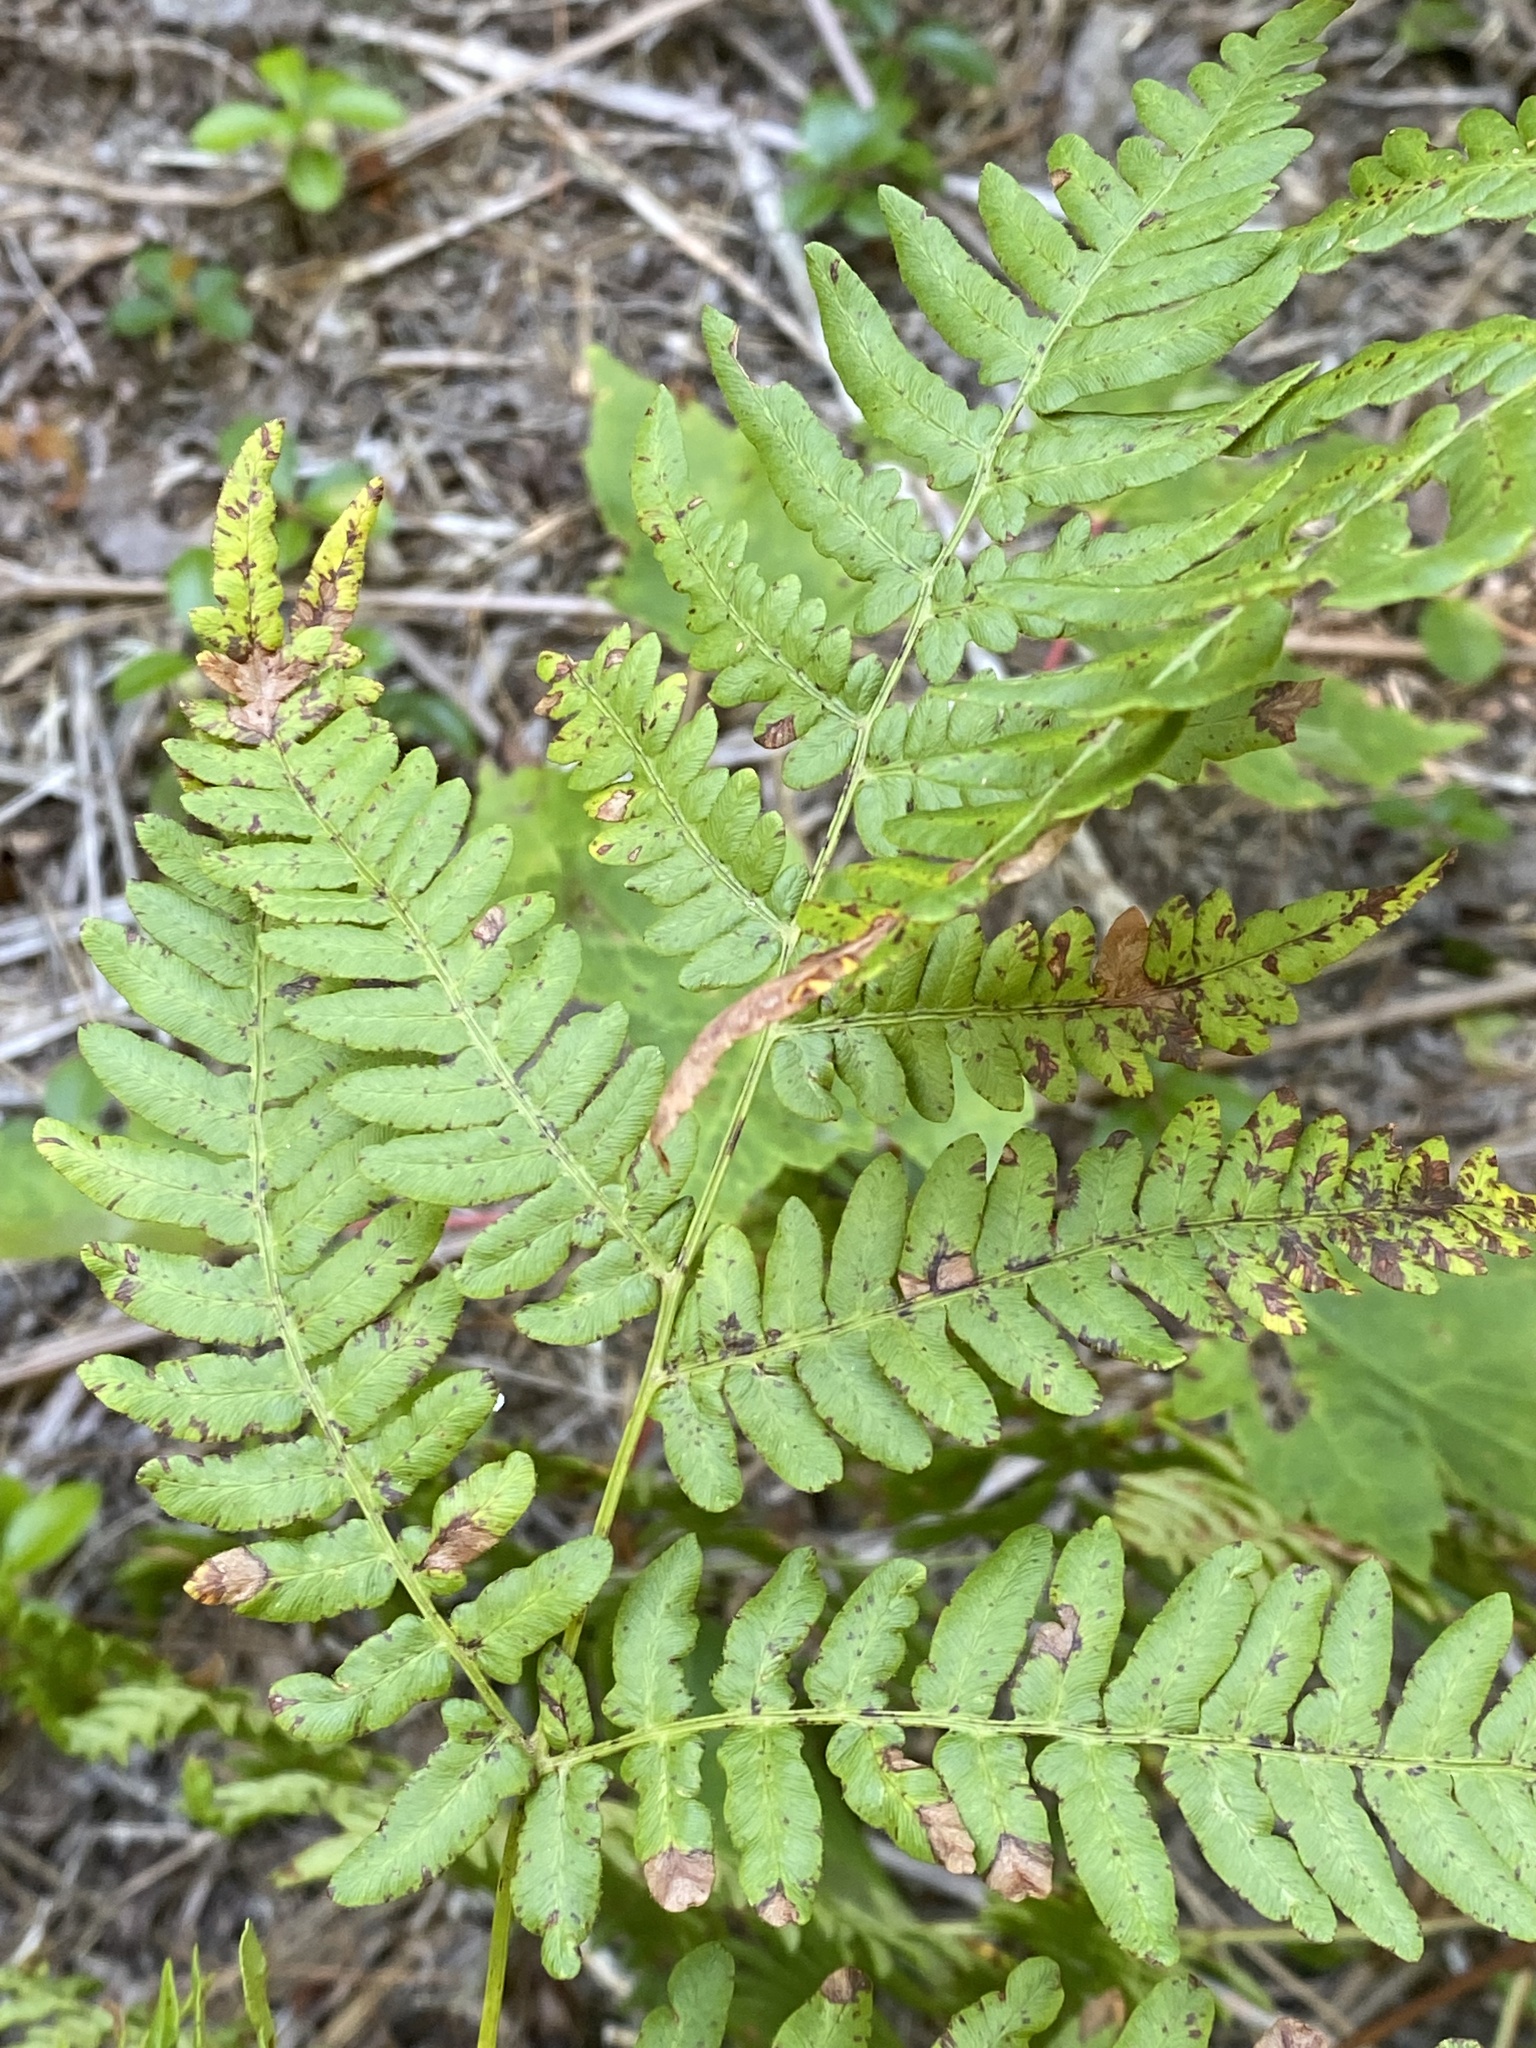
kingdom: Plantae
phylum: Tracheophyta
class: Polypodiopsida
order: Polypodiales
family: Dennstaedtiaceae
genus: Pteridium
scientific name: Pteridium aquilinum
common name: Bracken
